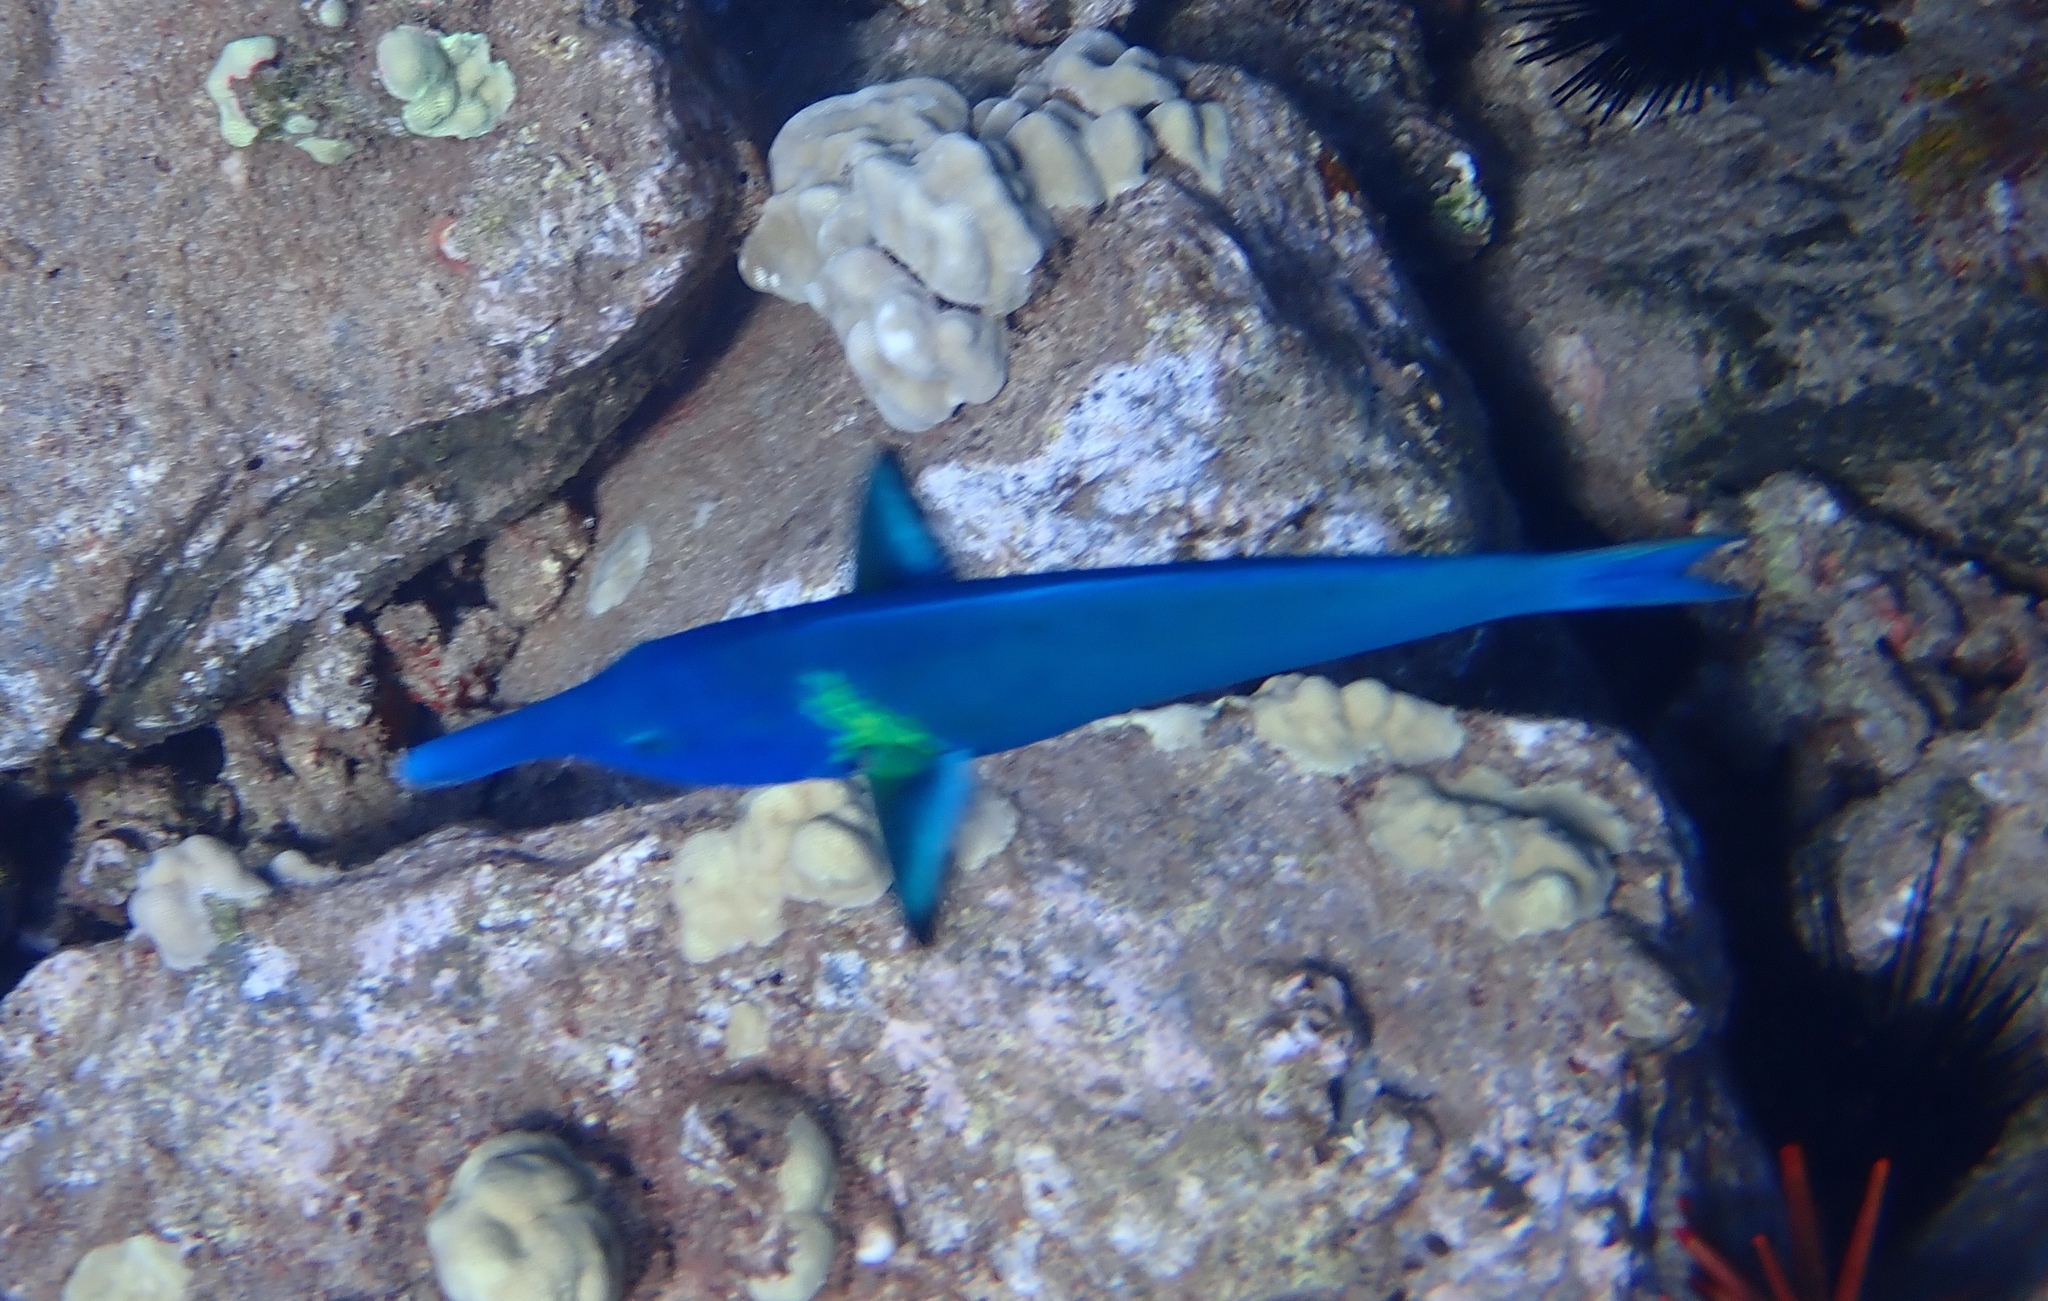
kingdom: Animalia
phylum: Chordata
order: Perciformes
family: Labridae
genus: Gomphosus
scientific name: Gomphosus varius
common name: Bird wrasse
